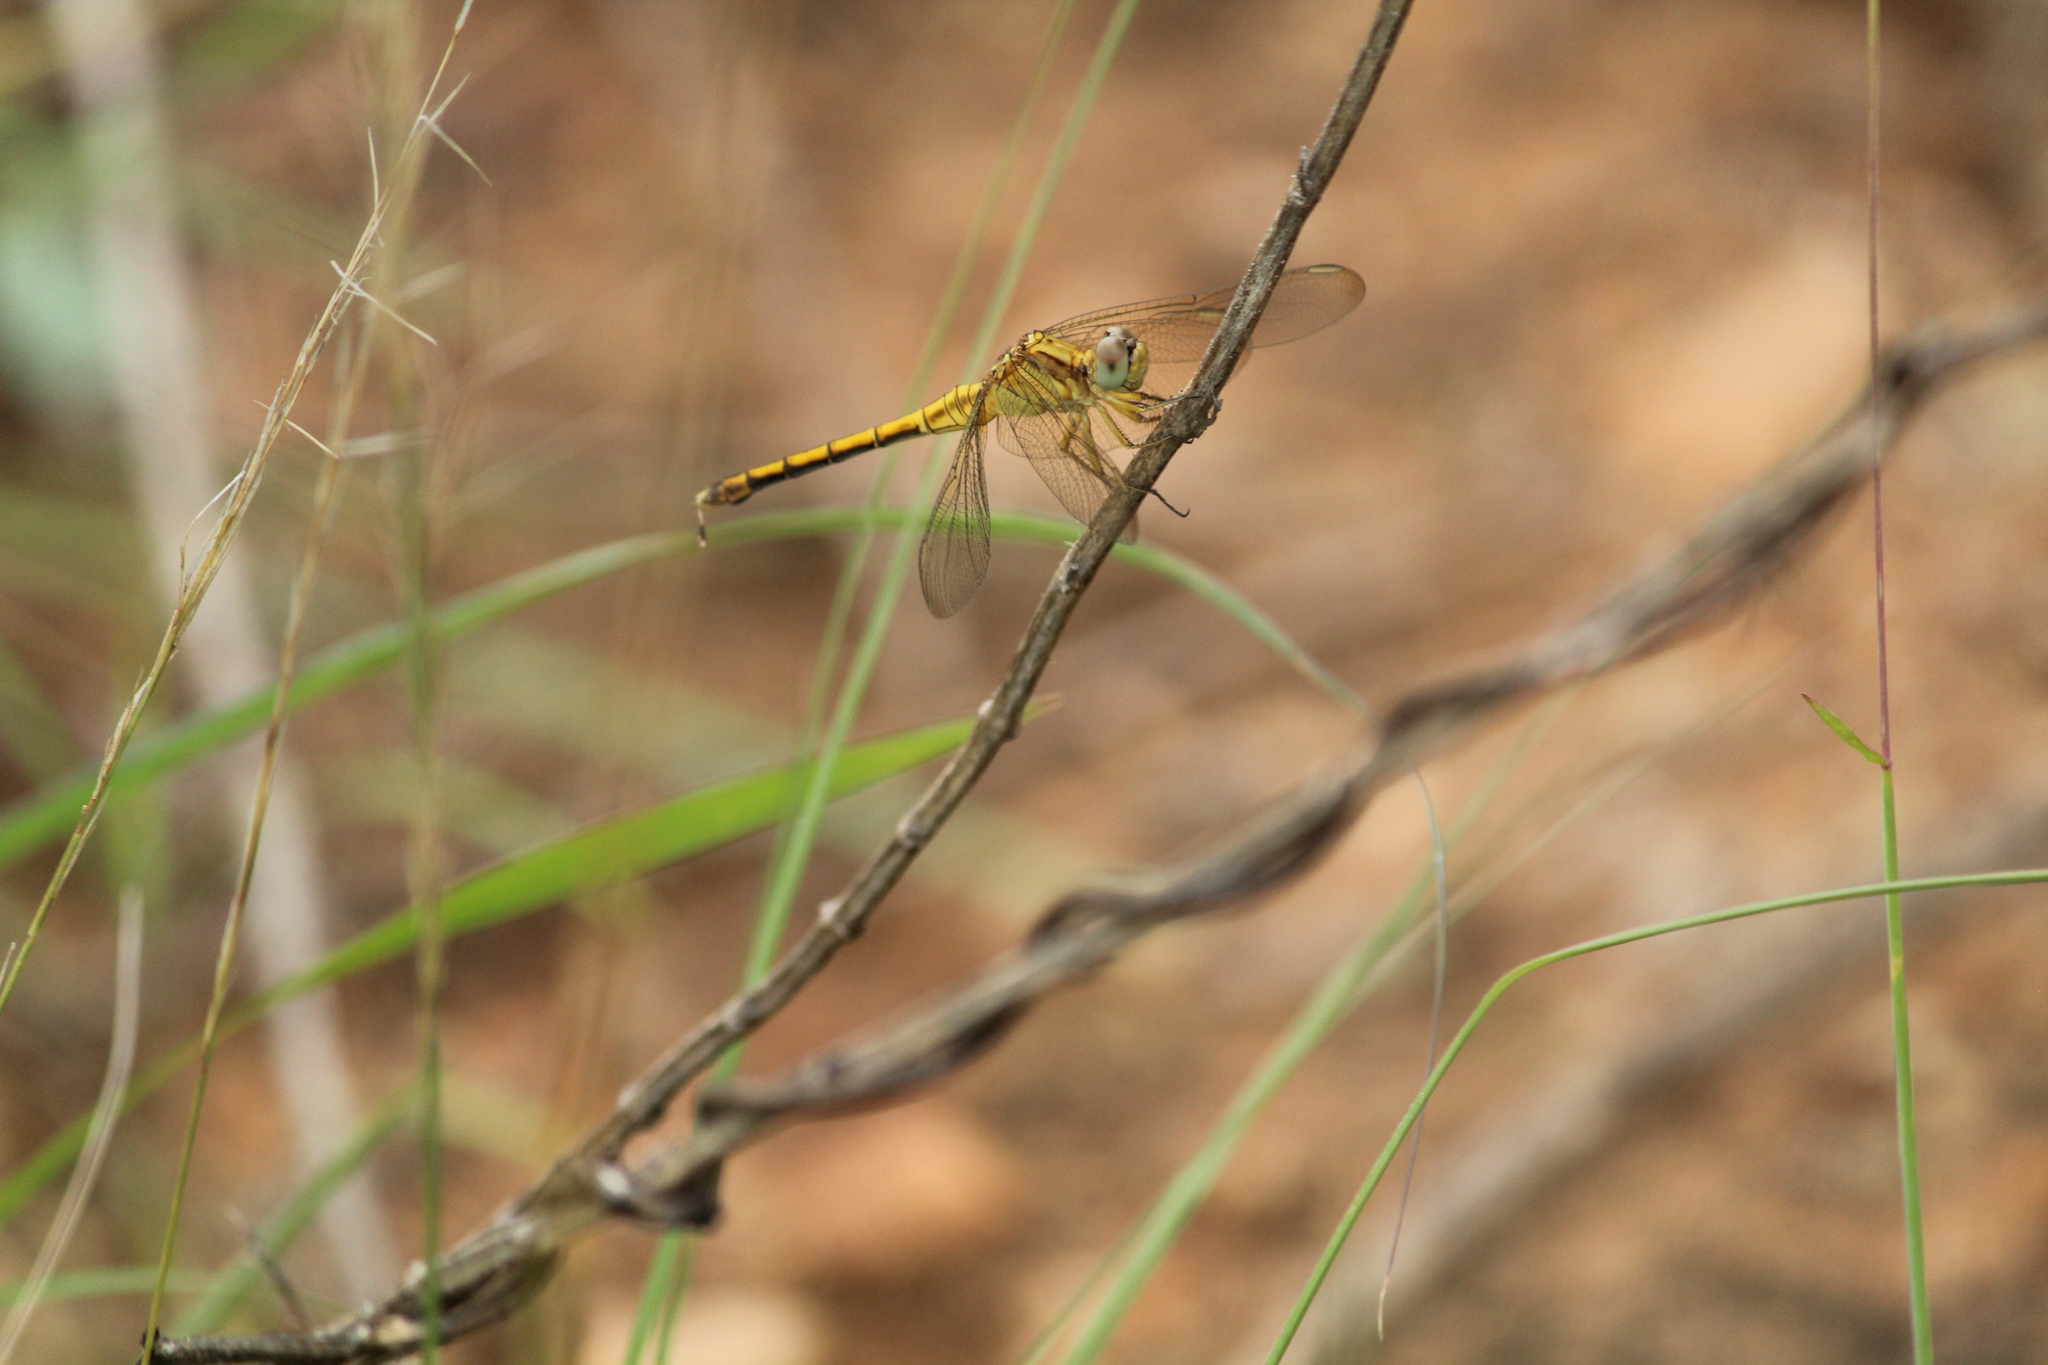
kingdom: Animalia
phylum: Arthropoda
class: Insecta
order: Odonata
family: Libellulidae
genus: Orthetrum
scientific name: Orthetrum luzonicum
